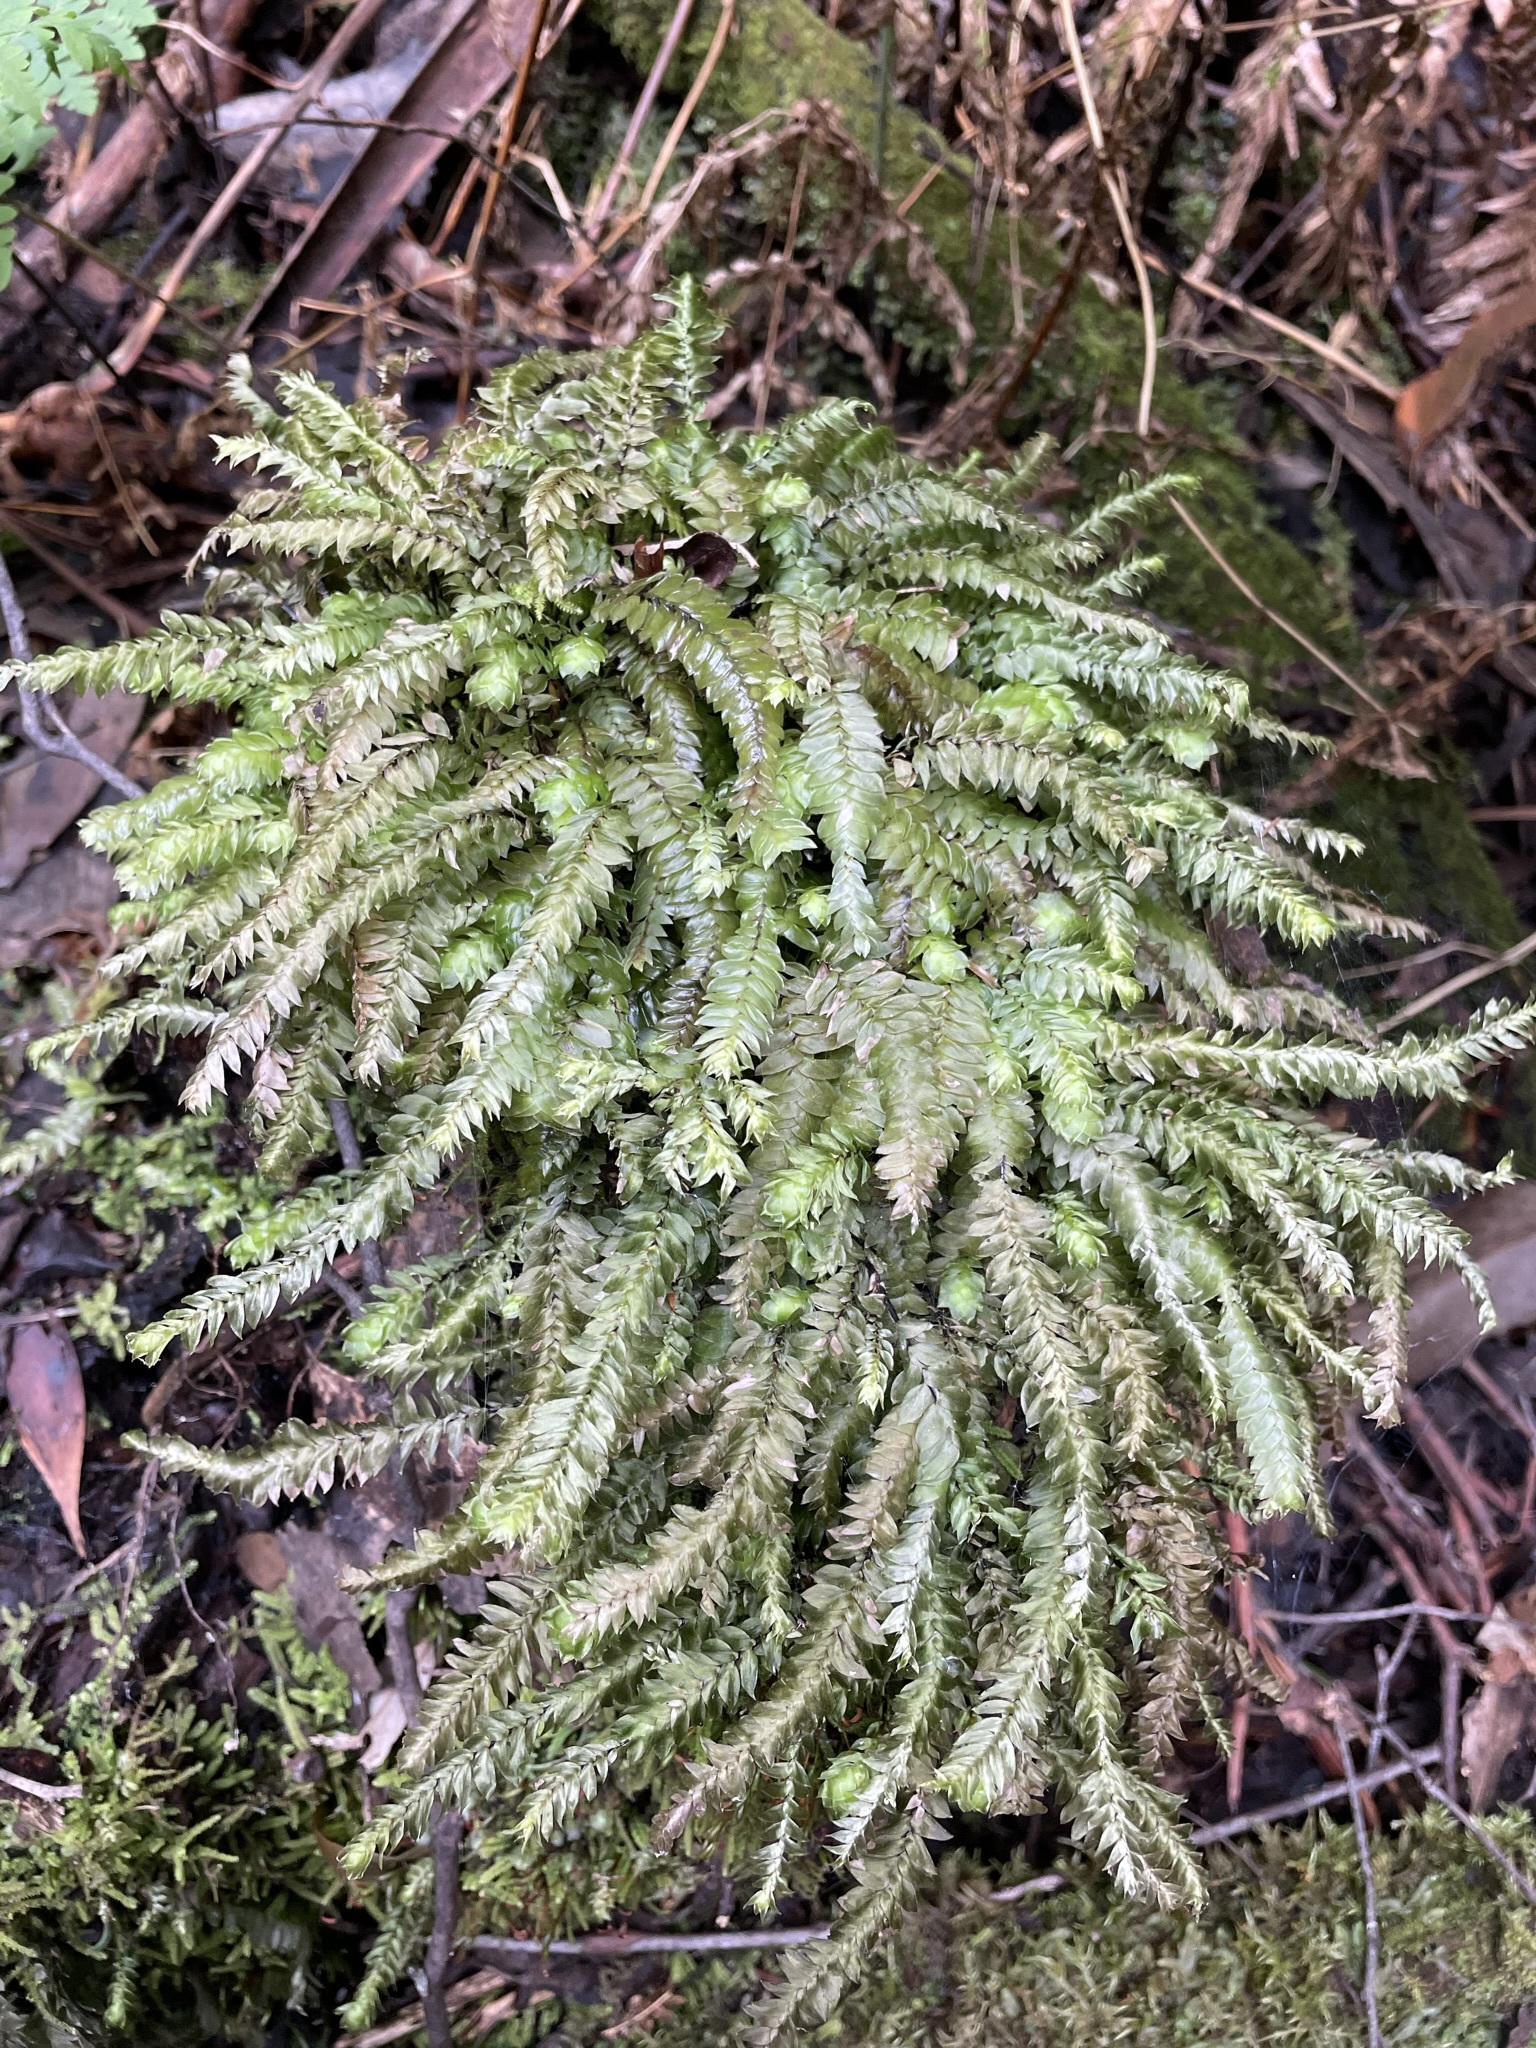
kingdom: Plantae
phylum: Bryophyta
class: Bryopsida
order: Hypopterygiales
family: Hypopterygiaceae
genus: Cyathophorum
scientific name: Cyathophorum bulbosum
